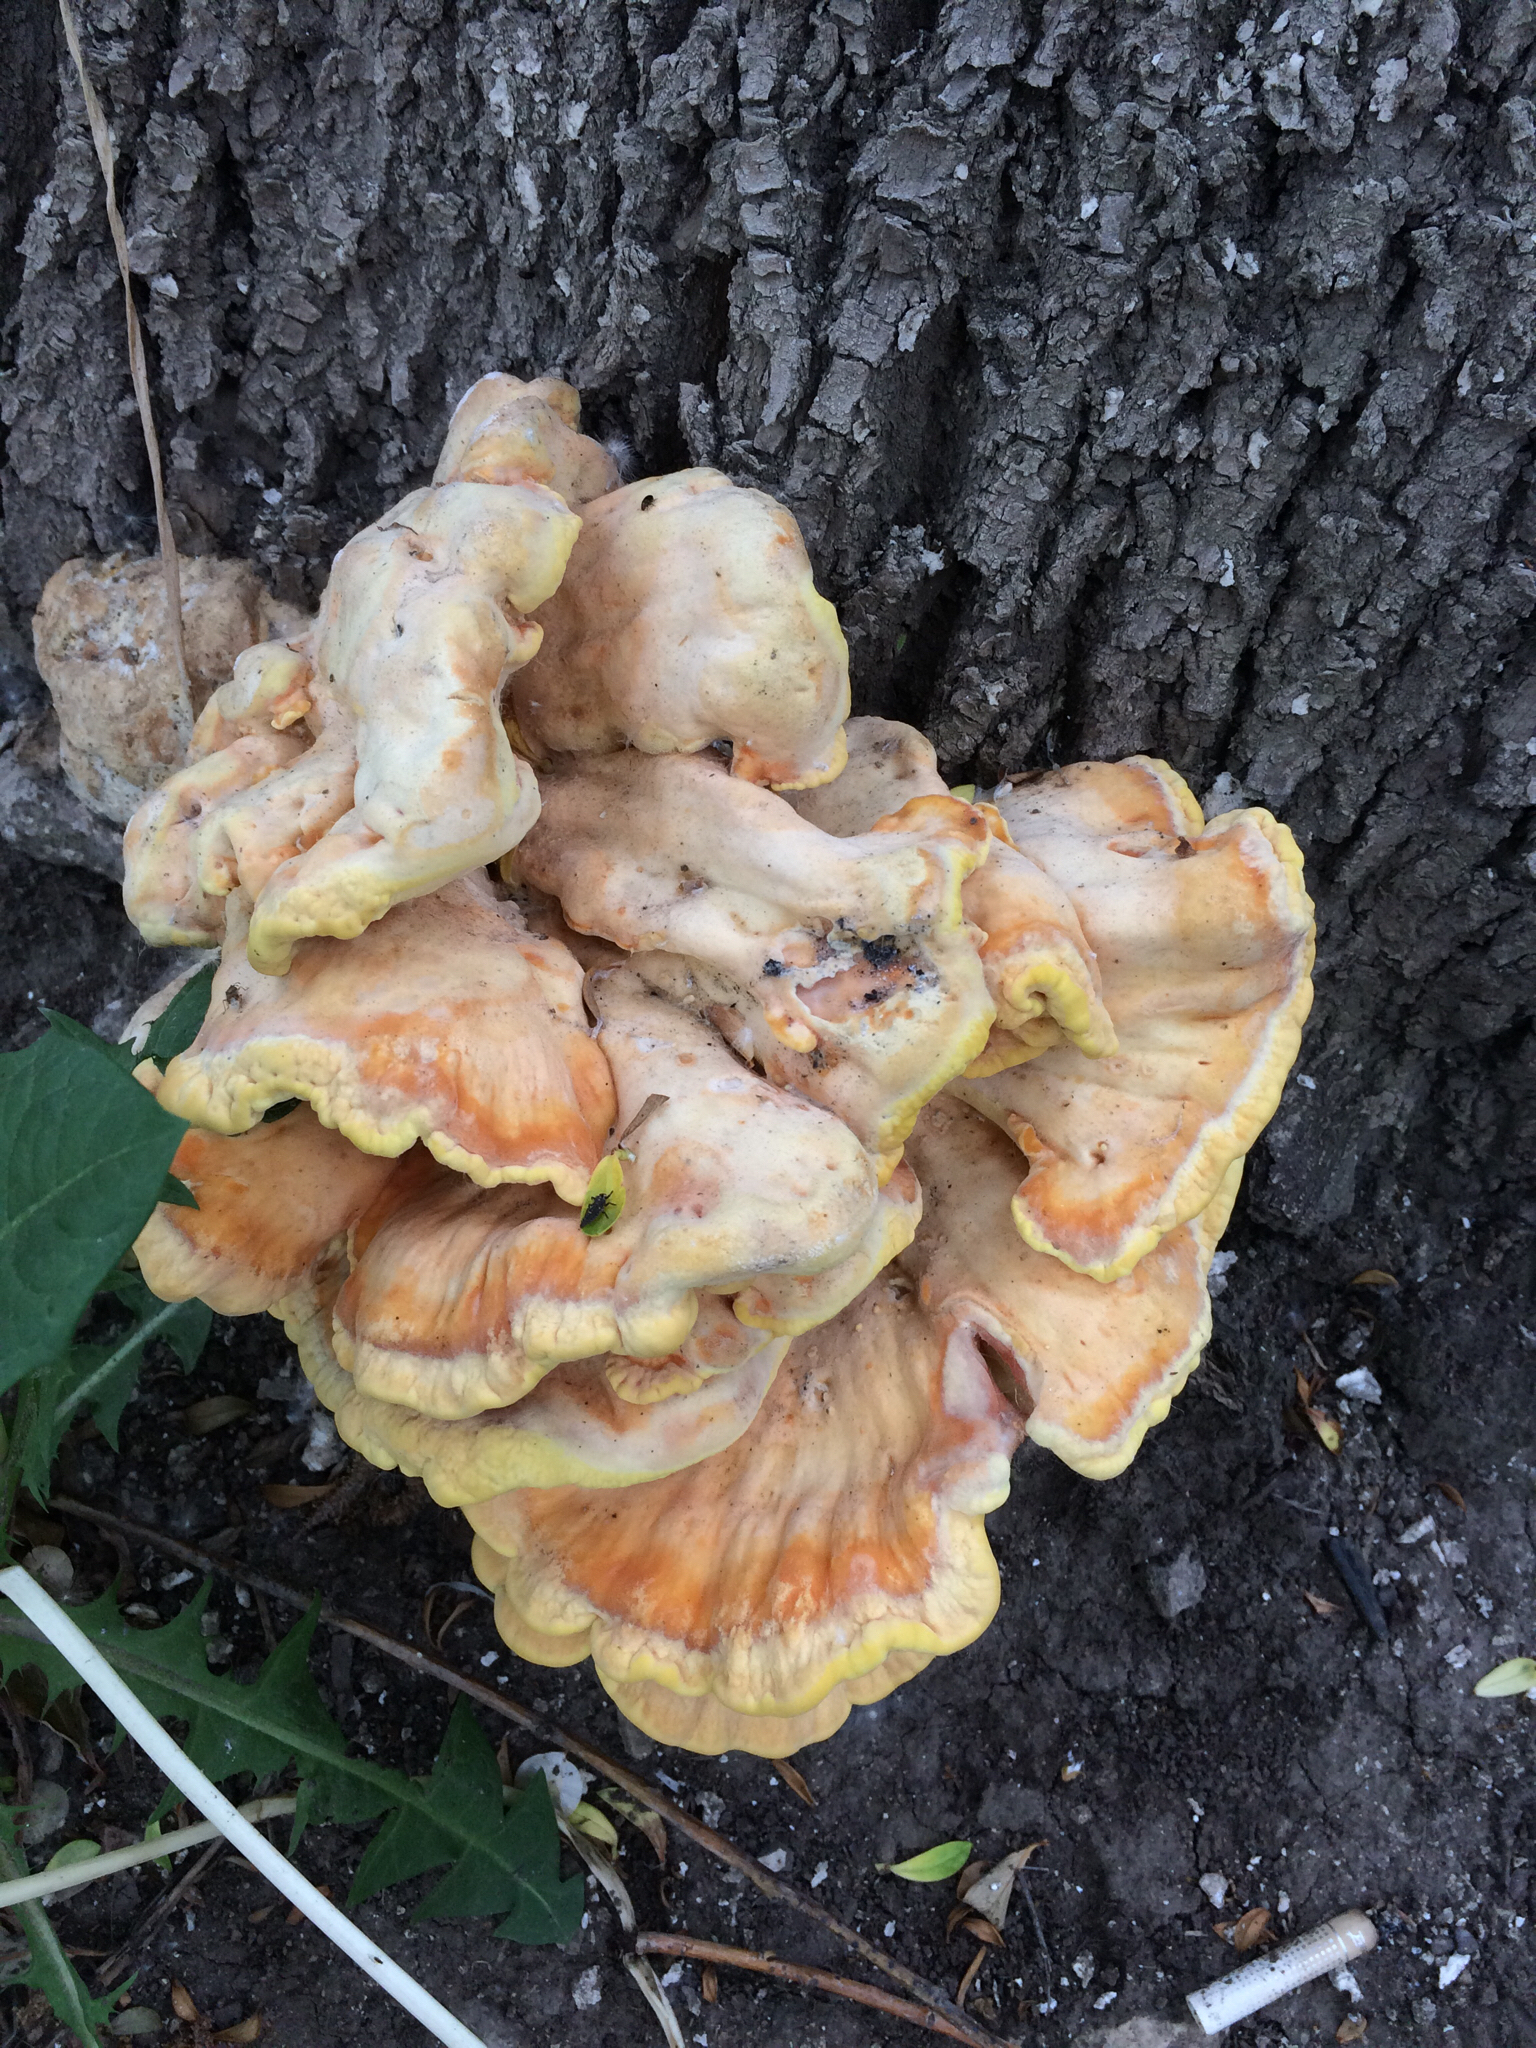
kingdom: Fungi
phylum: Basidiomycota
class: Agaricomycetes
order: Polyporales
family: Laetiporaceae
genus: Laetiporus
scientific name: Laetiporus sulphureus
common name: Chicken of the woods
